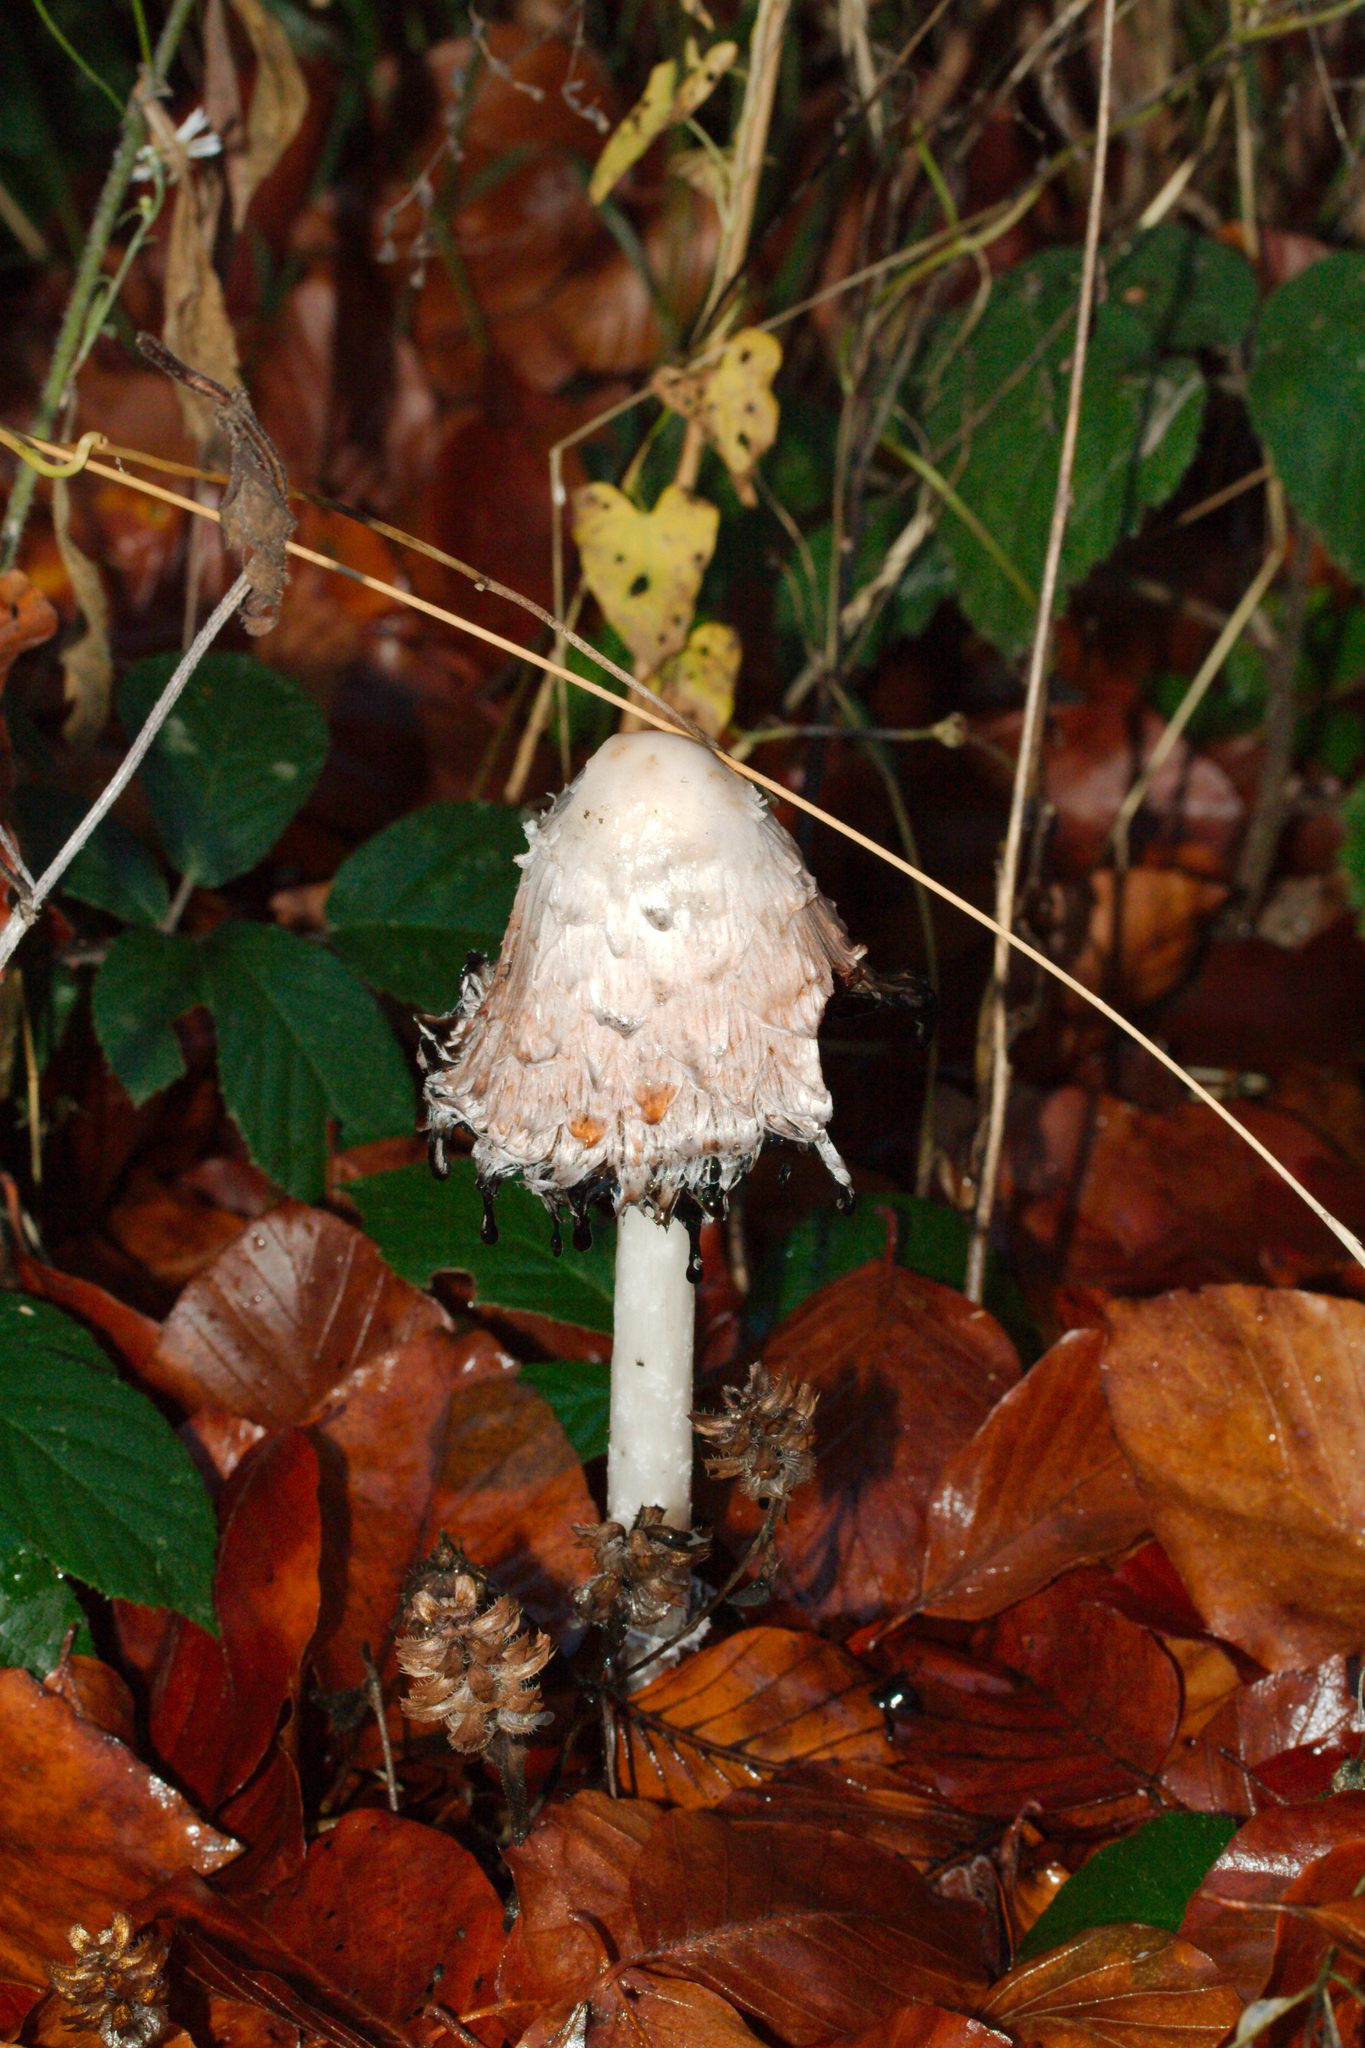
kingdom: Fungi
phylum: Basidiomycota
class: Agaricomycetes
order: Agaricales
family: Agaricaceae
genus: Coprinus
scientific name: Coprinus comatus
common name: Lawyer's wig
